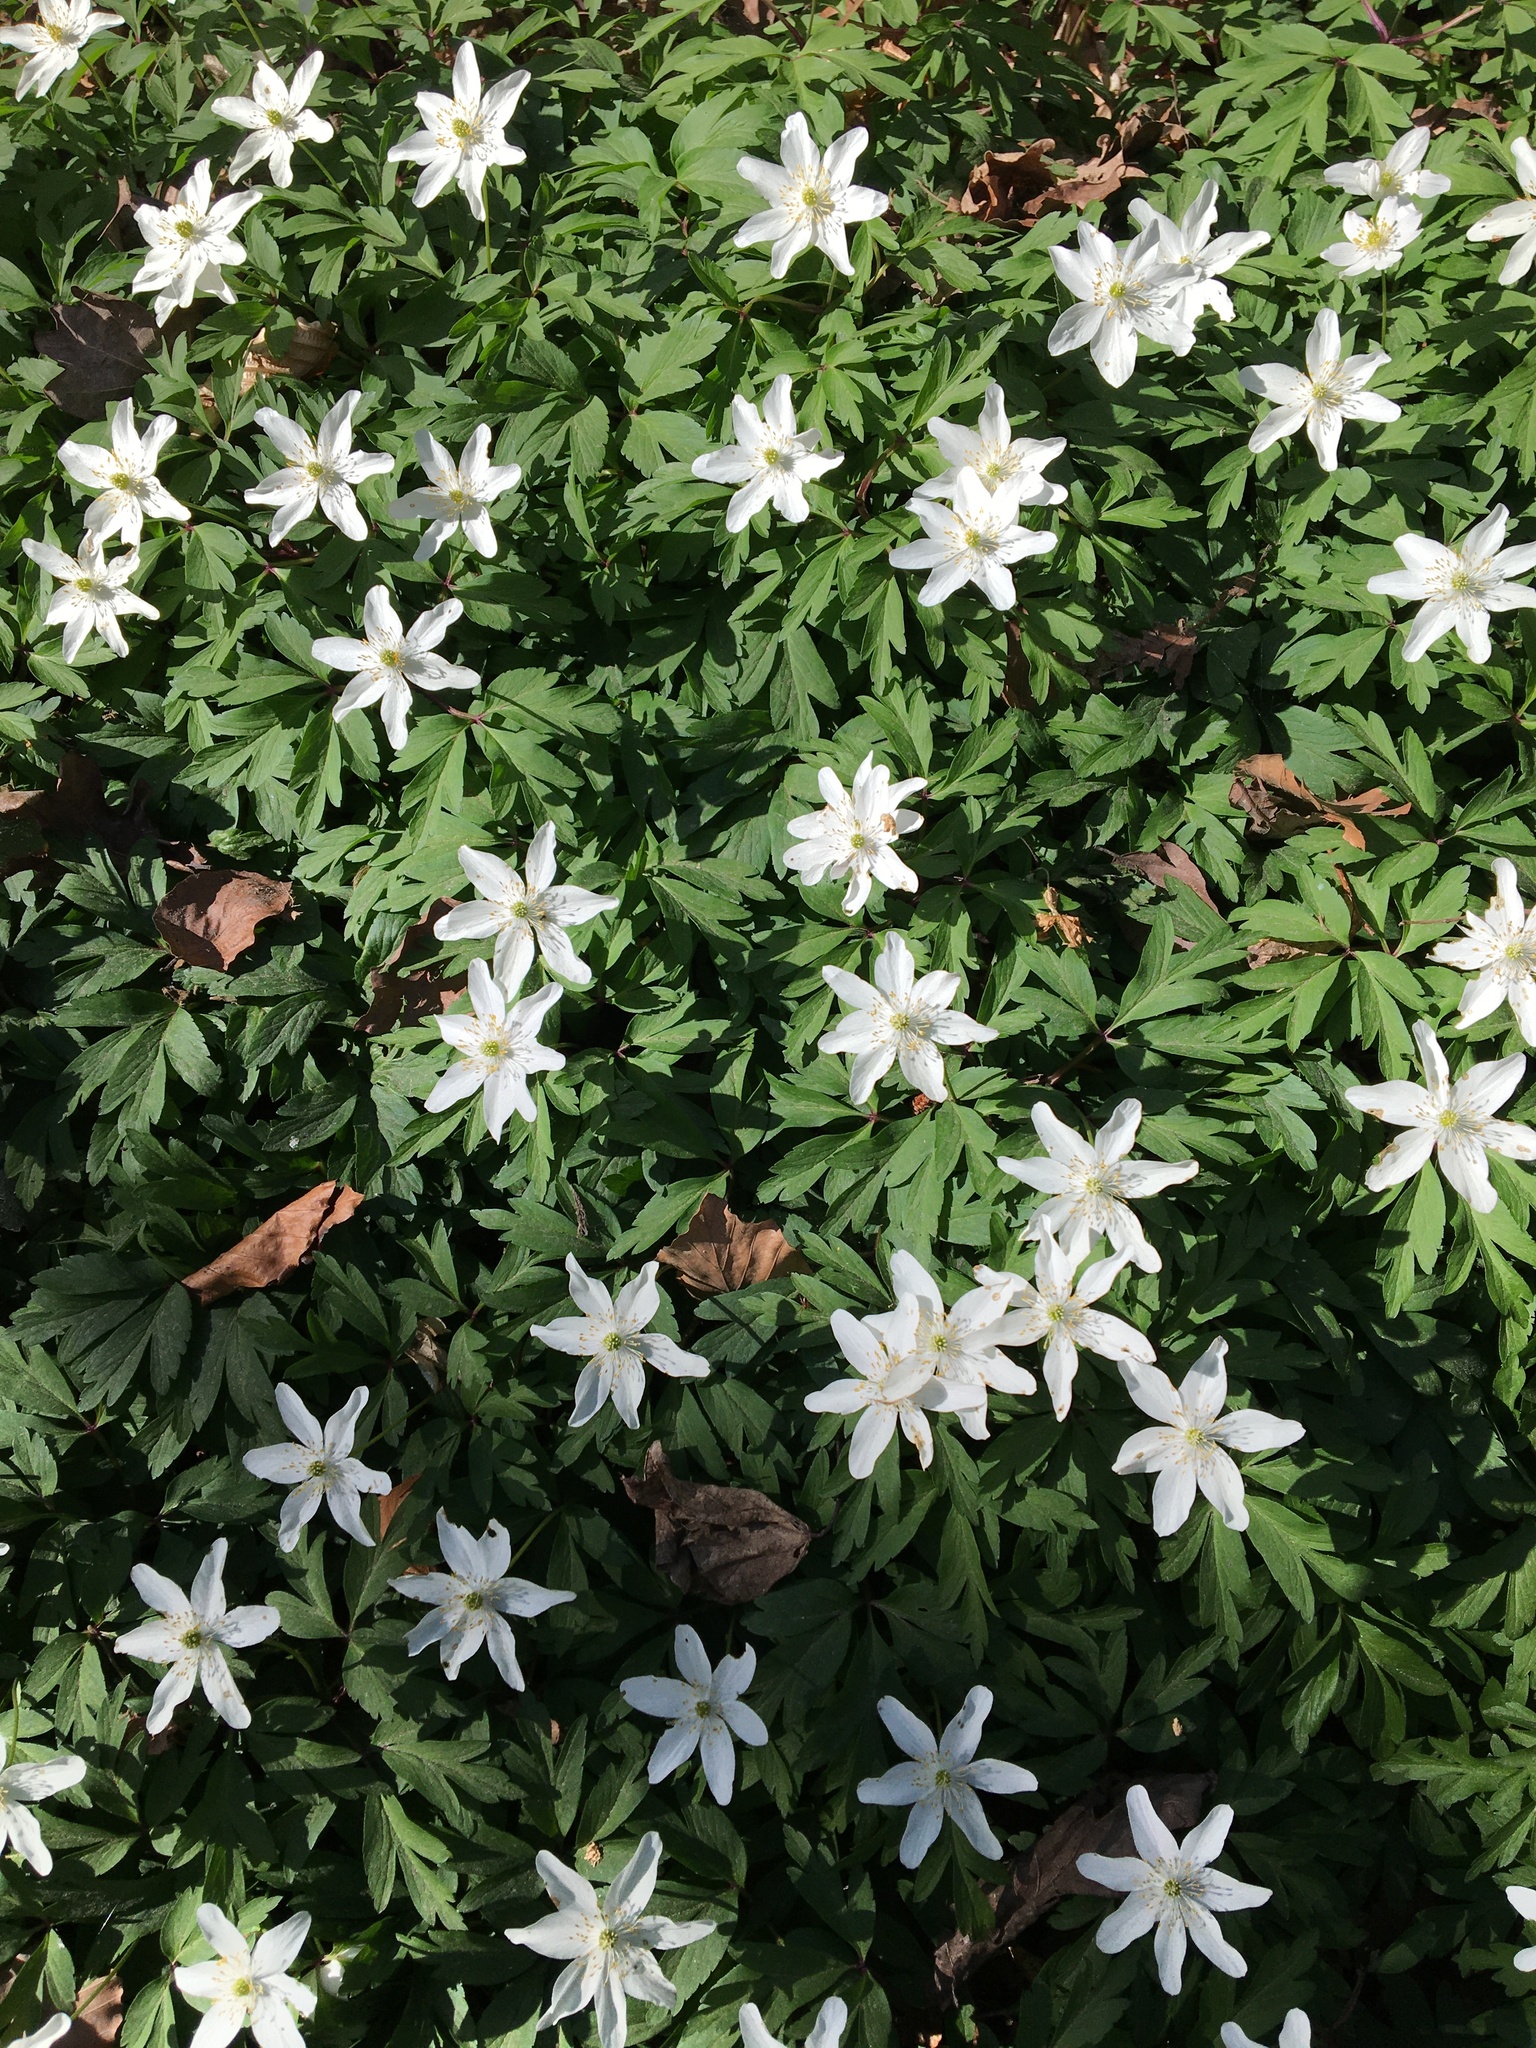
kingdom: Plantae
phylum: Tracheophyta
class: Magnoliopsida
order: Ranunculales
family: Ranunculaceae
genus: Anemone
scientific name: Anemone nemorosa
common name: Wood anemone
